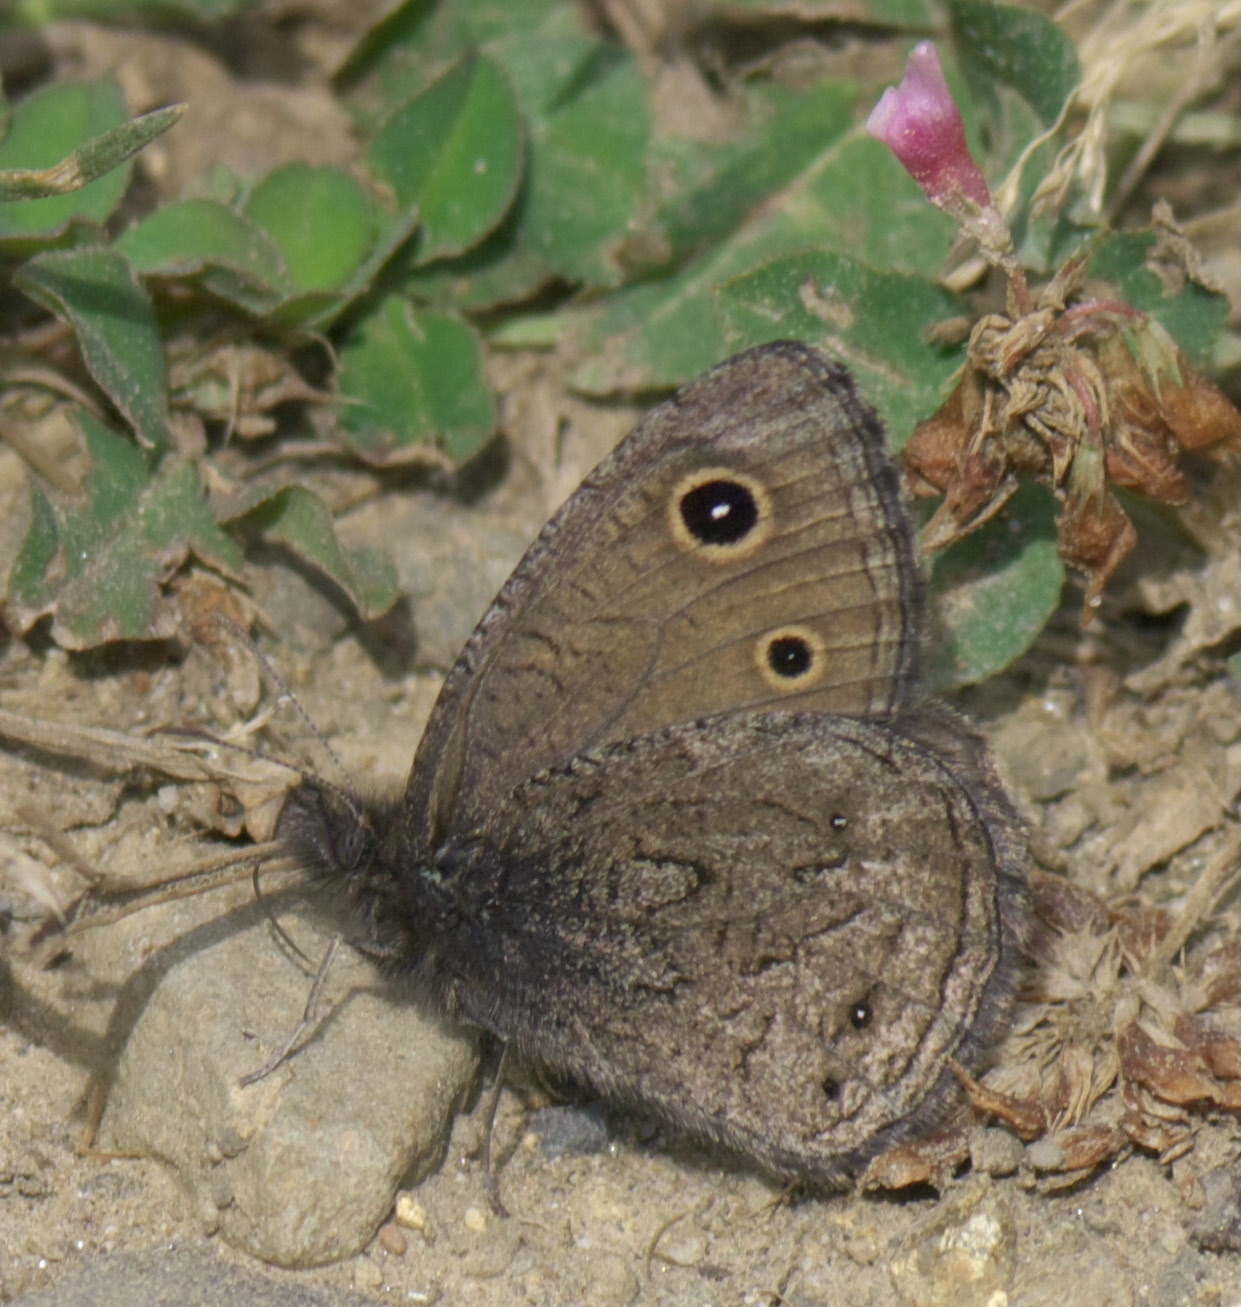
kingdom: Animalia
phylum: Arthropoda
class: Insecta
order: Lepidoptera
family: Nymphalidae
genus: Cercyonis
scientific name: Cercyonis oetus
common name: Small wood-nymph
